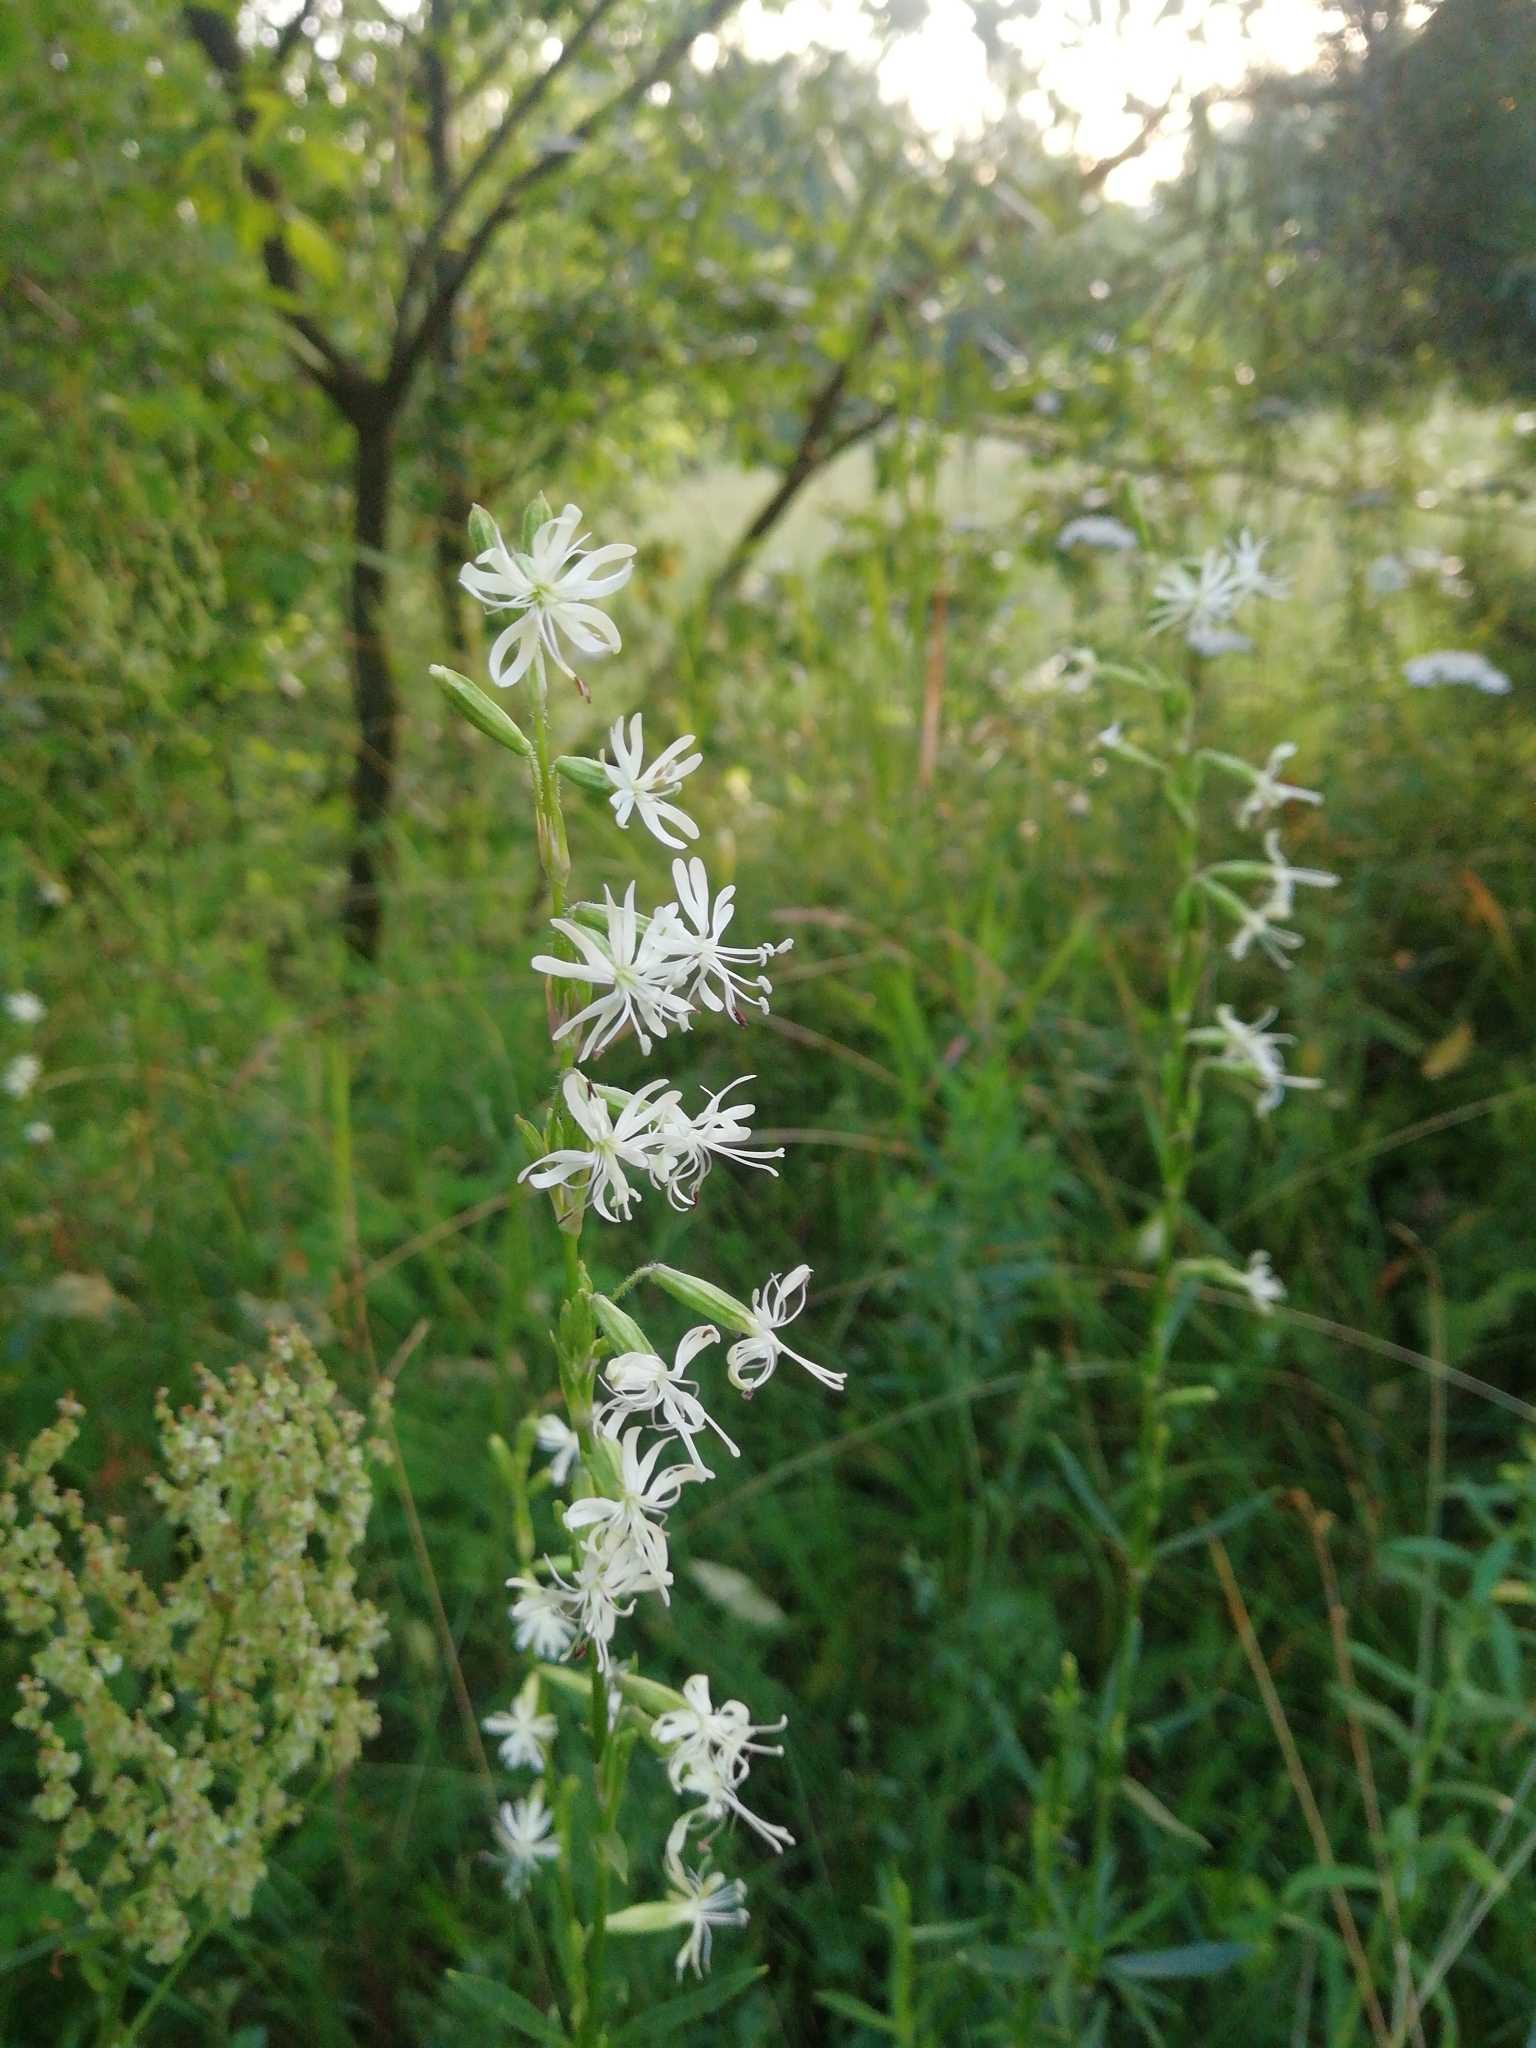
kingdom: Plantae
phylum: Tracheophyta
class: Magnoliopsida
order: Caryophyllales
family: Caryophyllaceae
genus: Silene
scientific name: Silene tatarica
